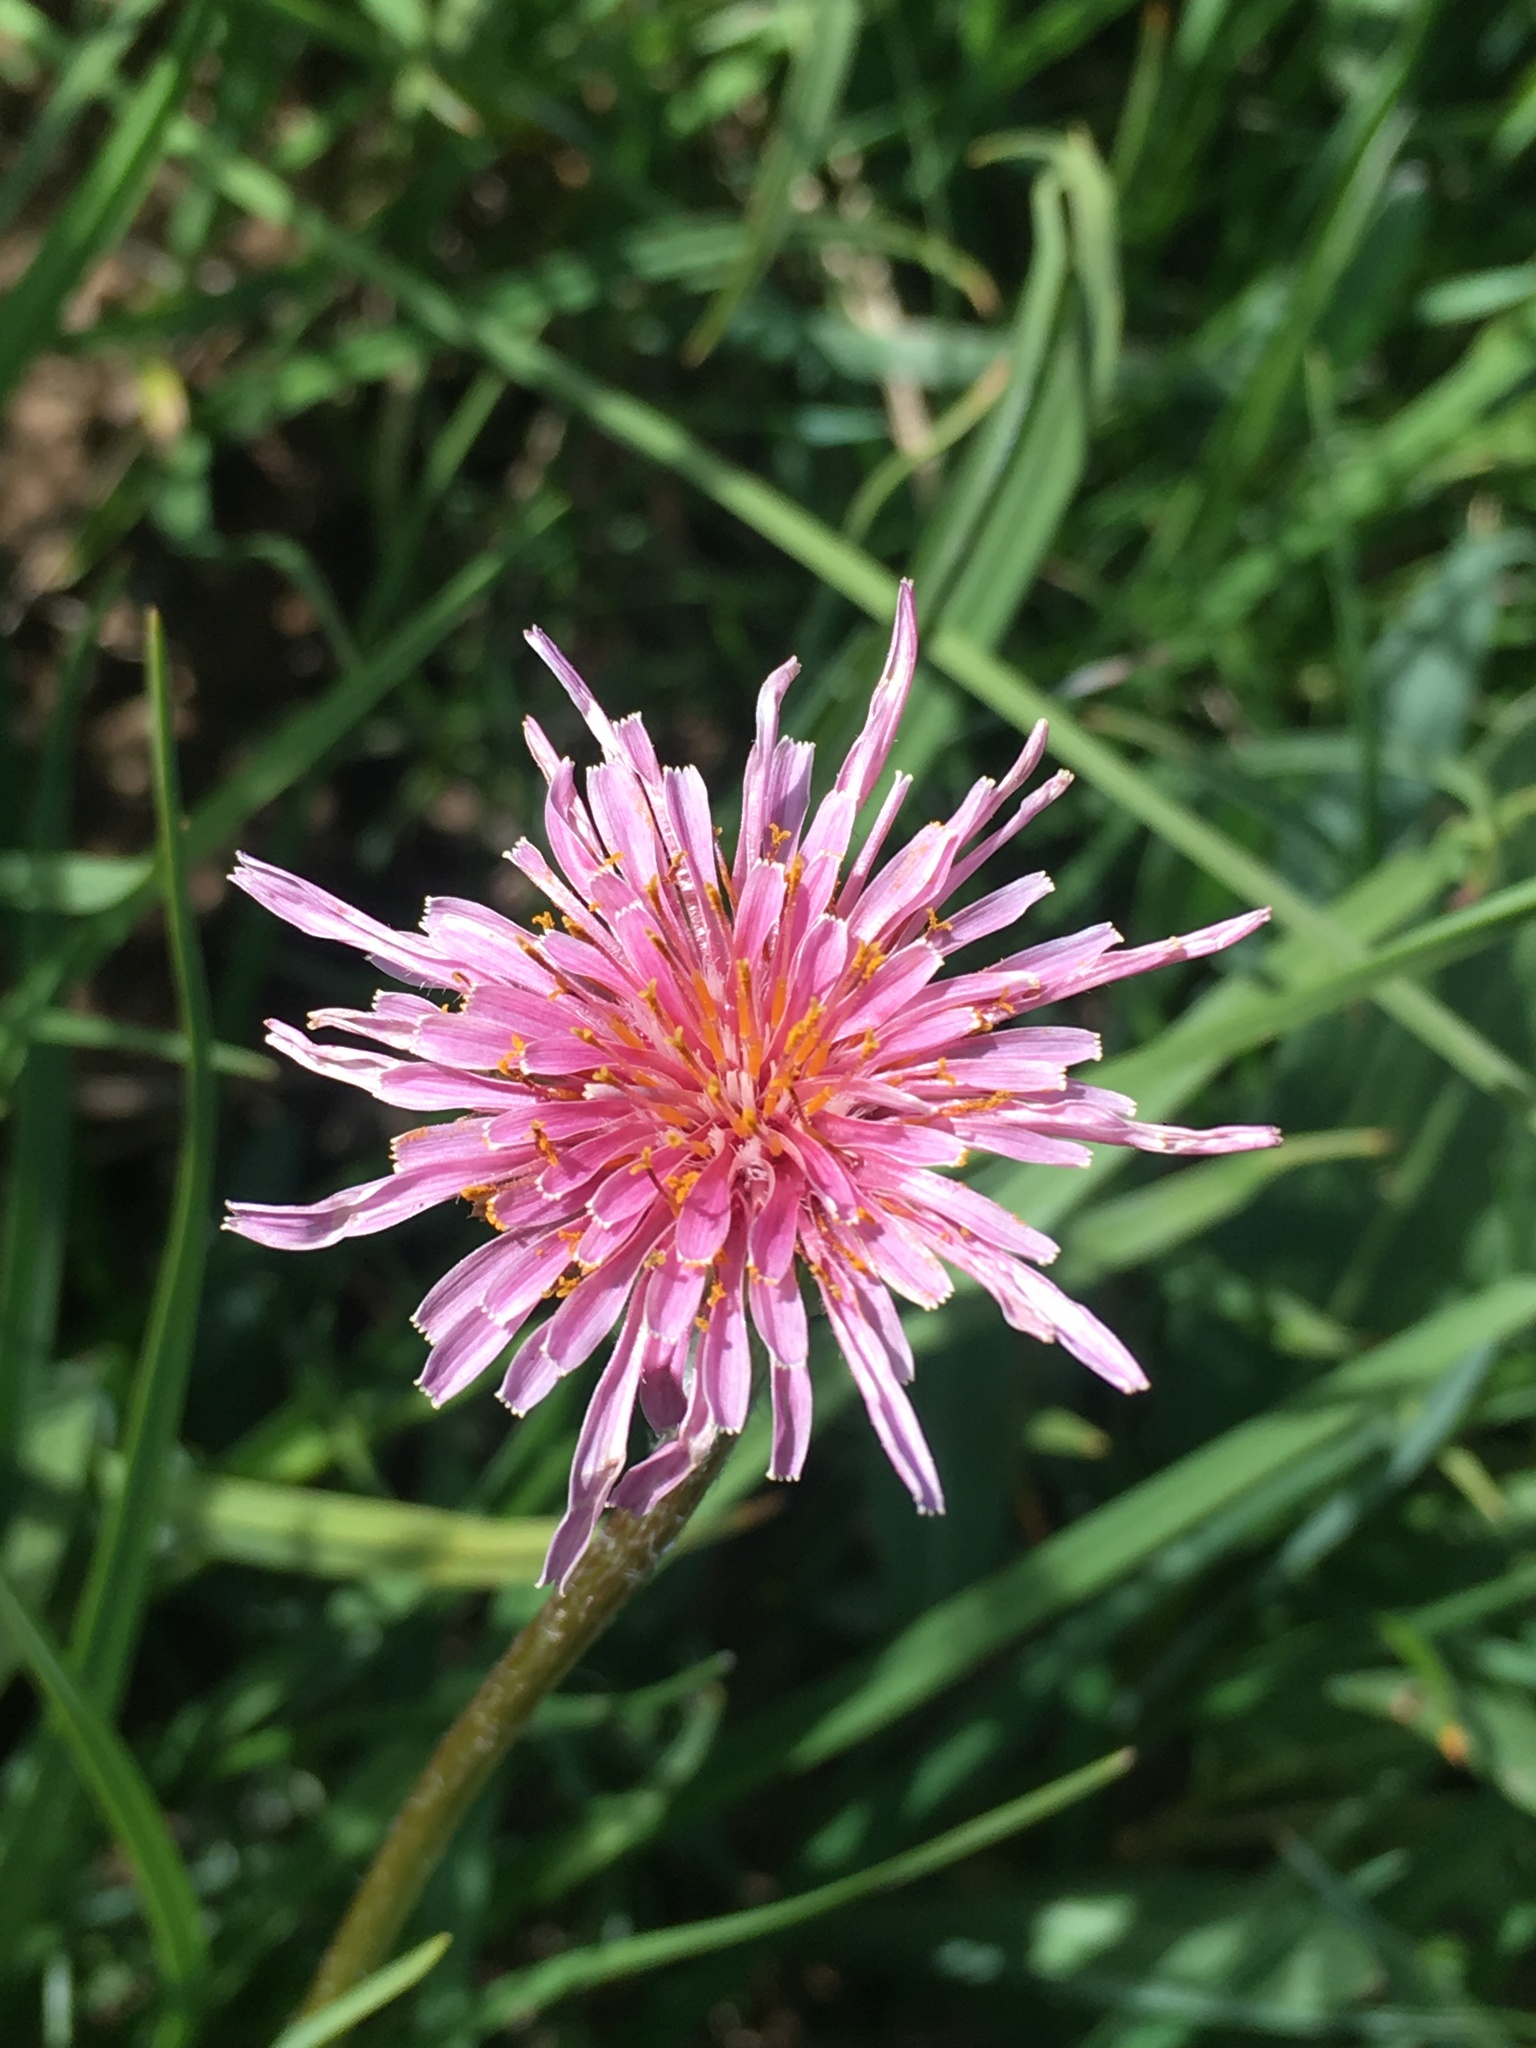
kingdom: Plantae
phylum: Tracheophyta
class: Magnoliopsida
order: Asterales
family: Asteraceae
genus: Agoseris
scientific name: Agoseris aurantiaca
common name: Mountain agoseris
